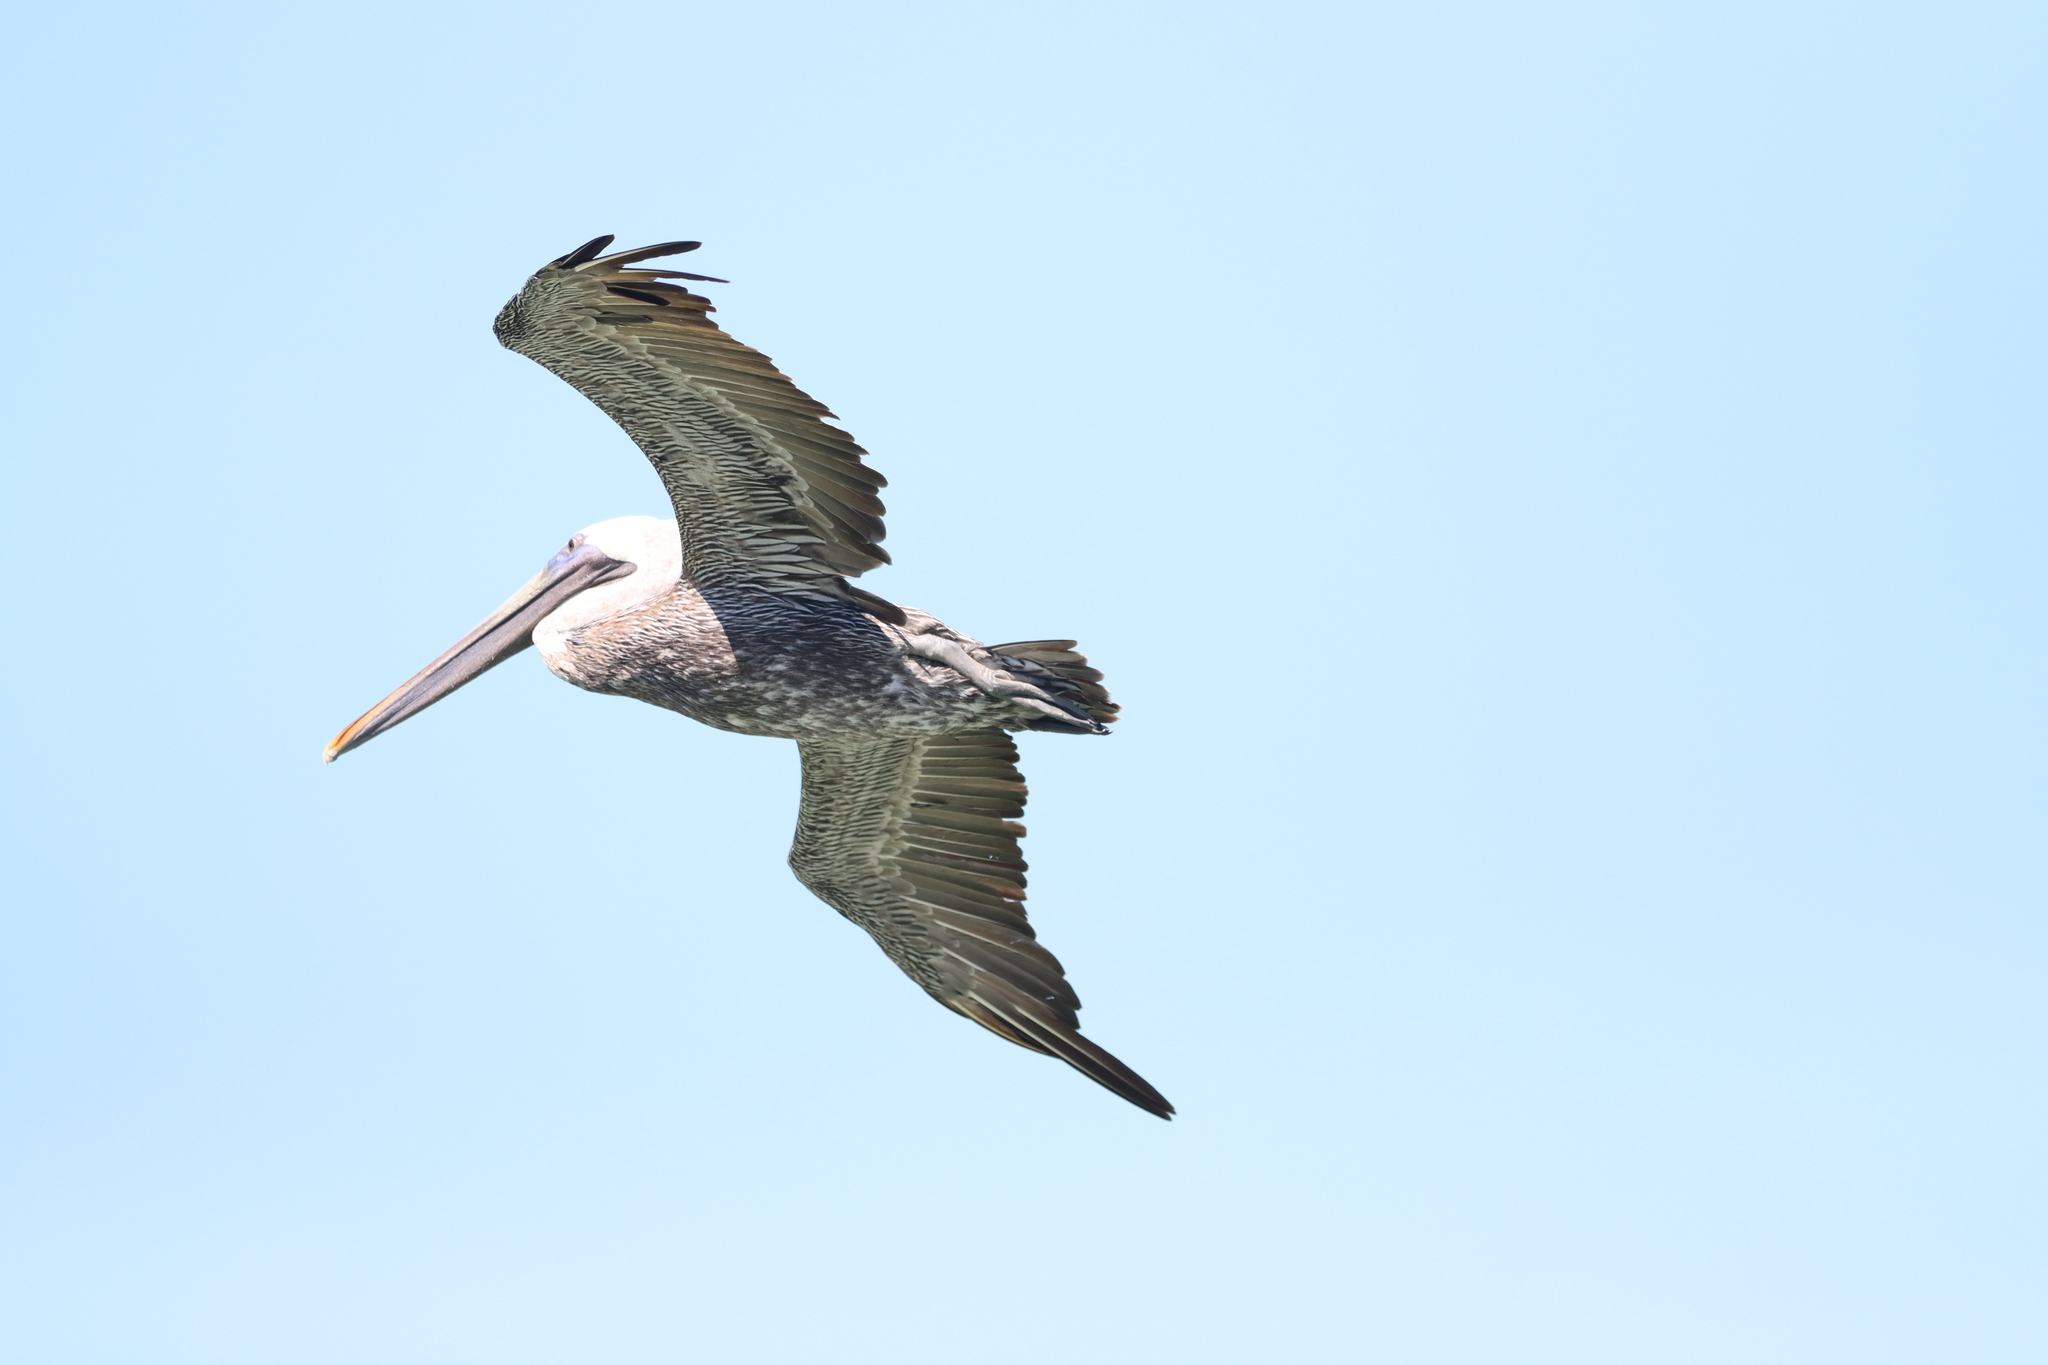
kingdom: Animalia
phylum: Chordata
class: Aves
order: Pelecaniformes
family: Pelecanidae
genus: Pelecanus
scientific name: Pelecanus occidentalis
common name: Brown pelican
